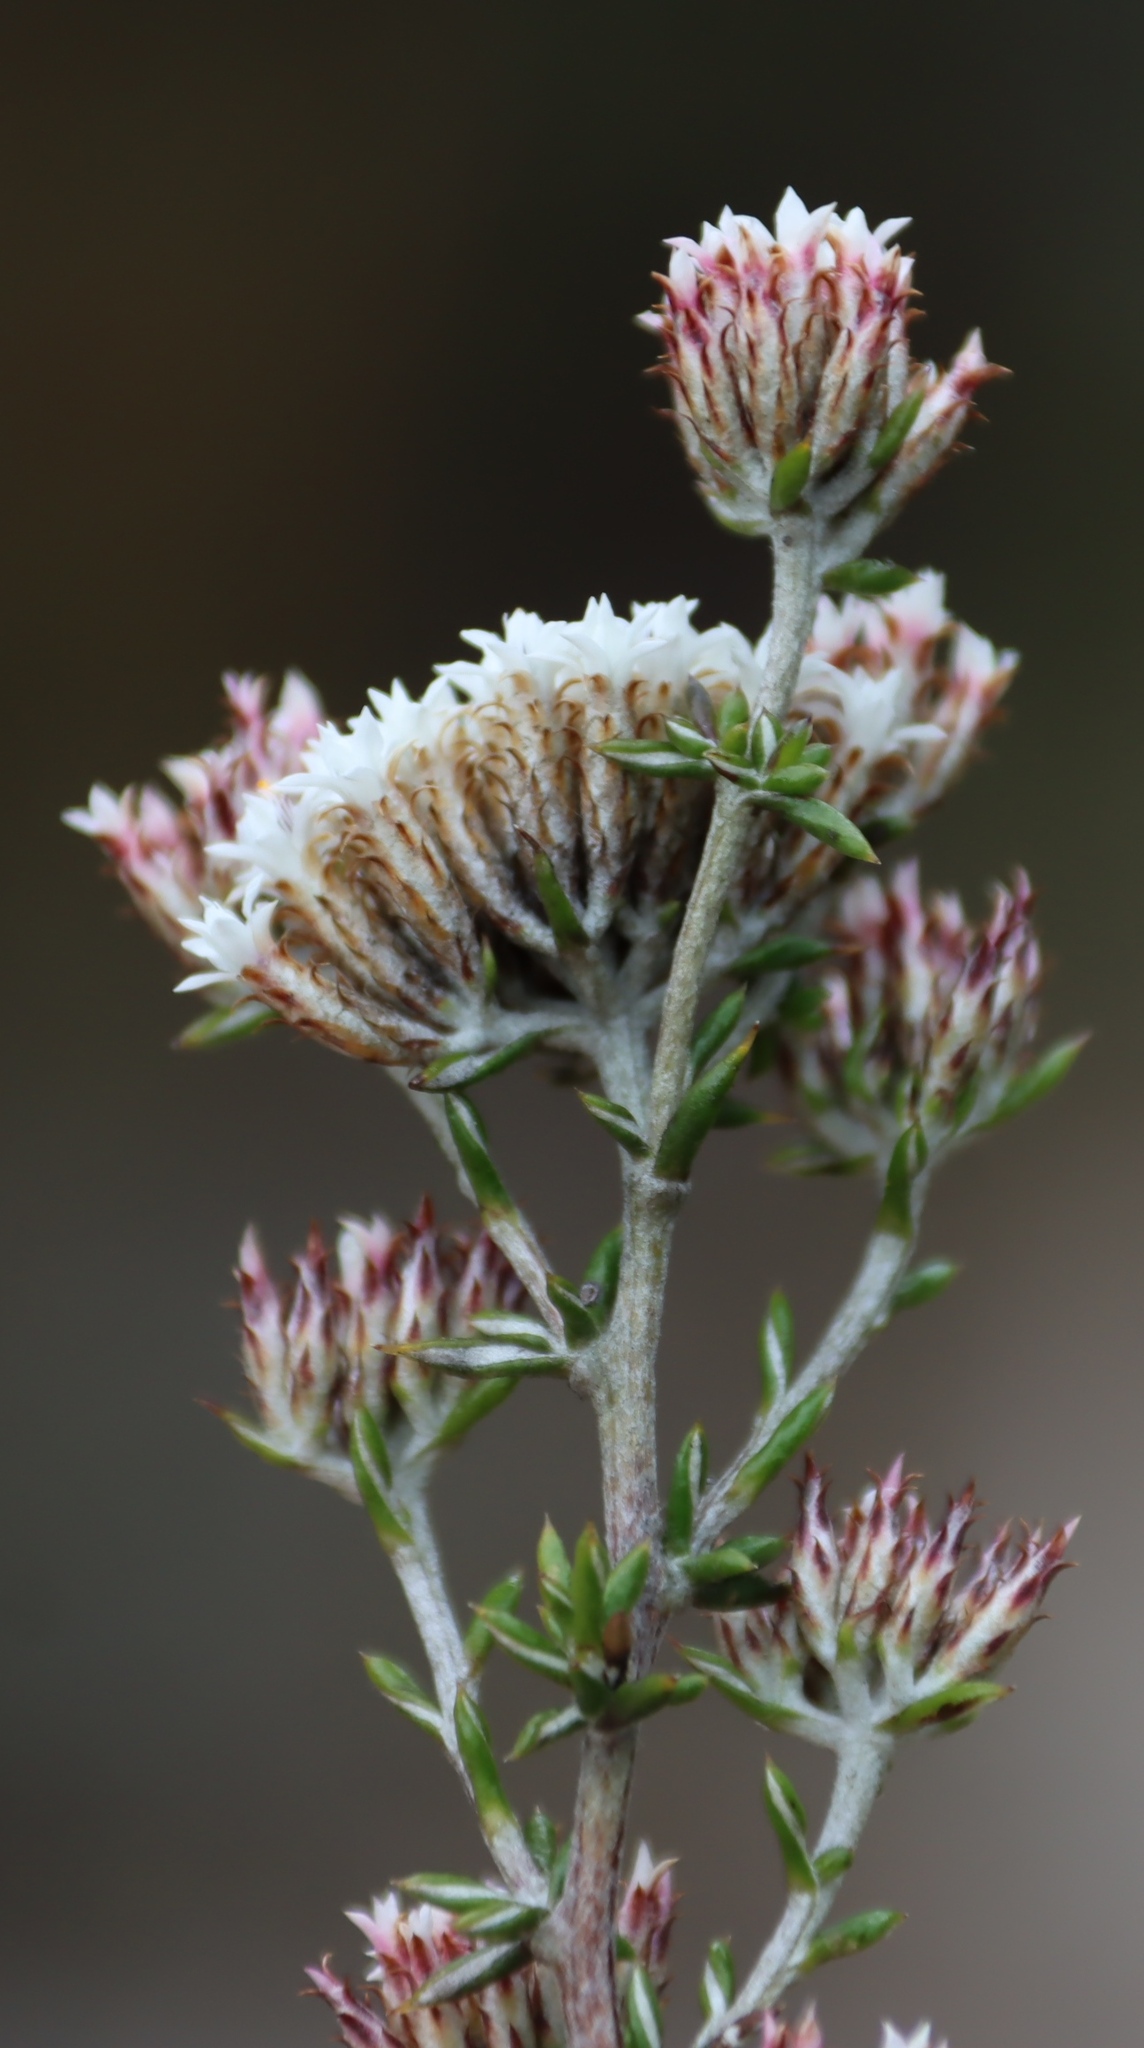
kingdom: Plantae
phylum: Tracheophyta
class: Magnoliopsida
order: Asterales
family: Asteraceae
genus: Metalasia
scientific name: Metalasia massonii
